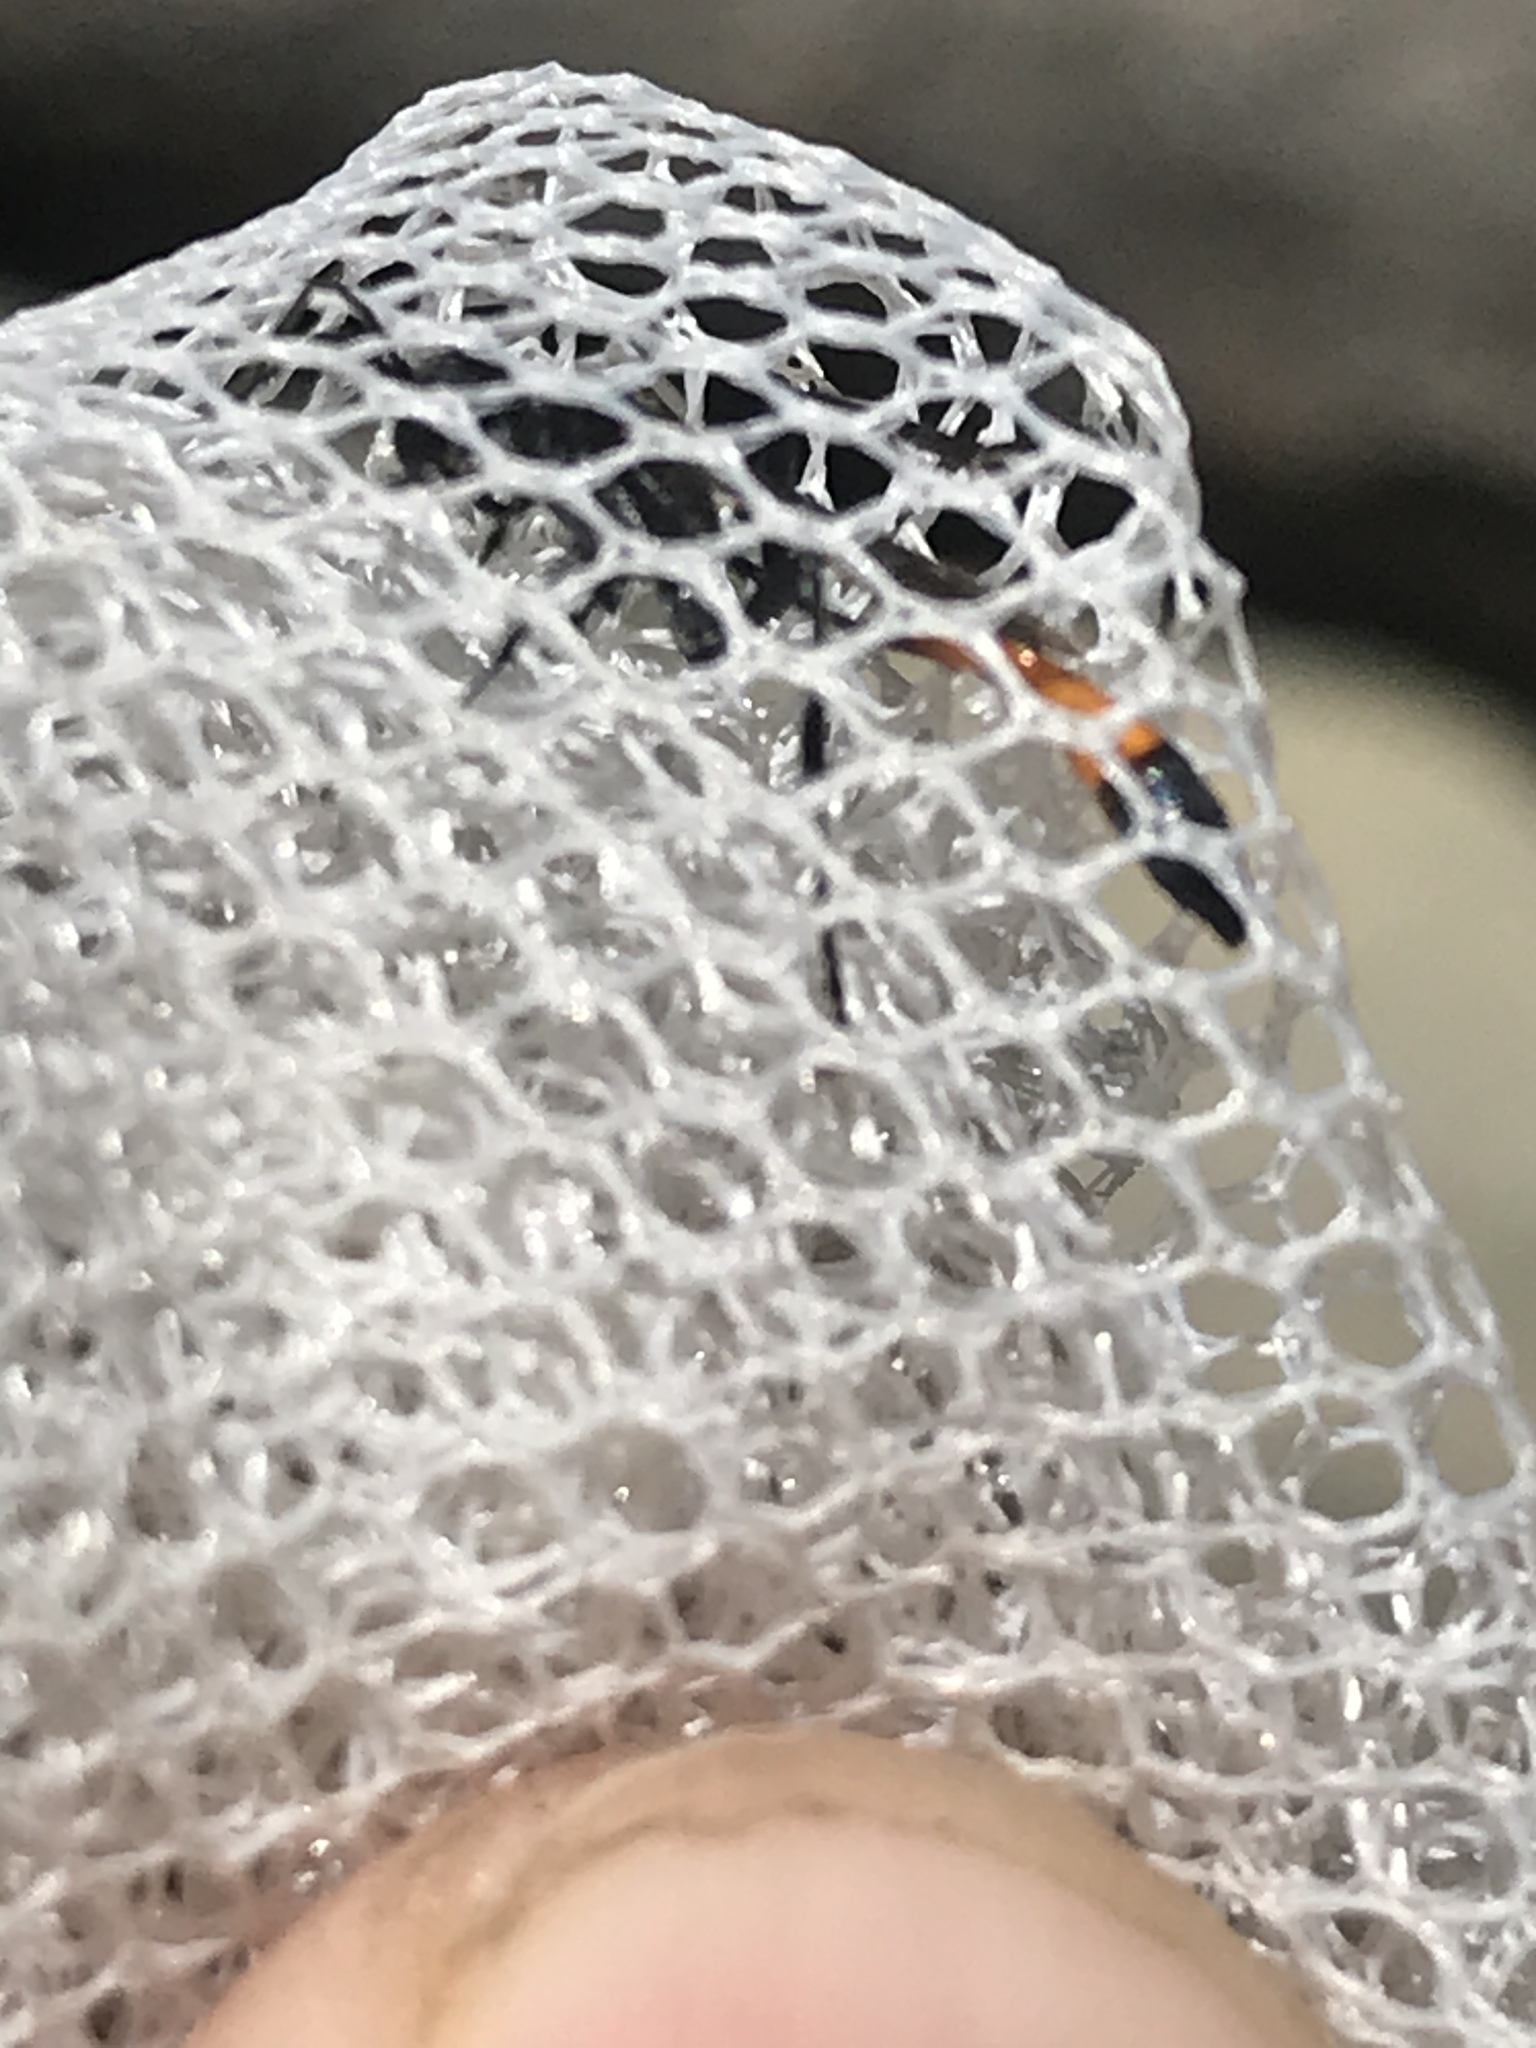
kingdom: Animalia
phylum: Arthropoda
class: Insecta
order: Hymenoptera
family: Sphecidae
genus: Ammophila
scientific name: Ammophila
